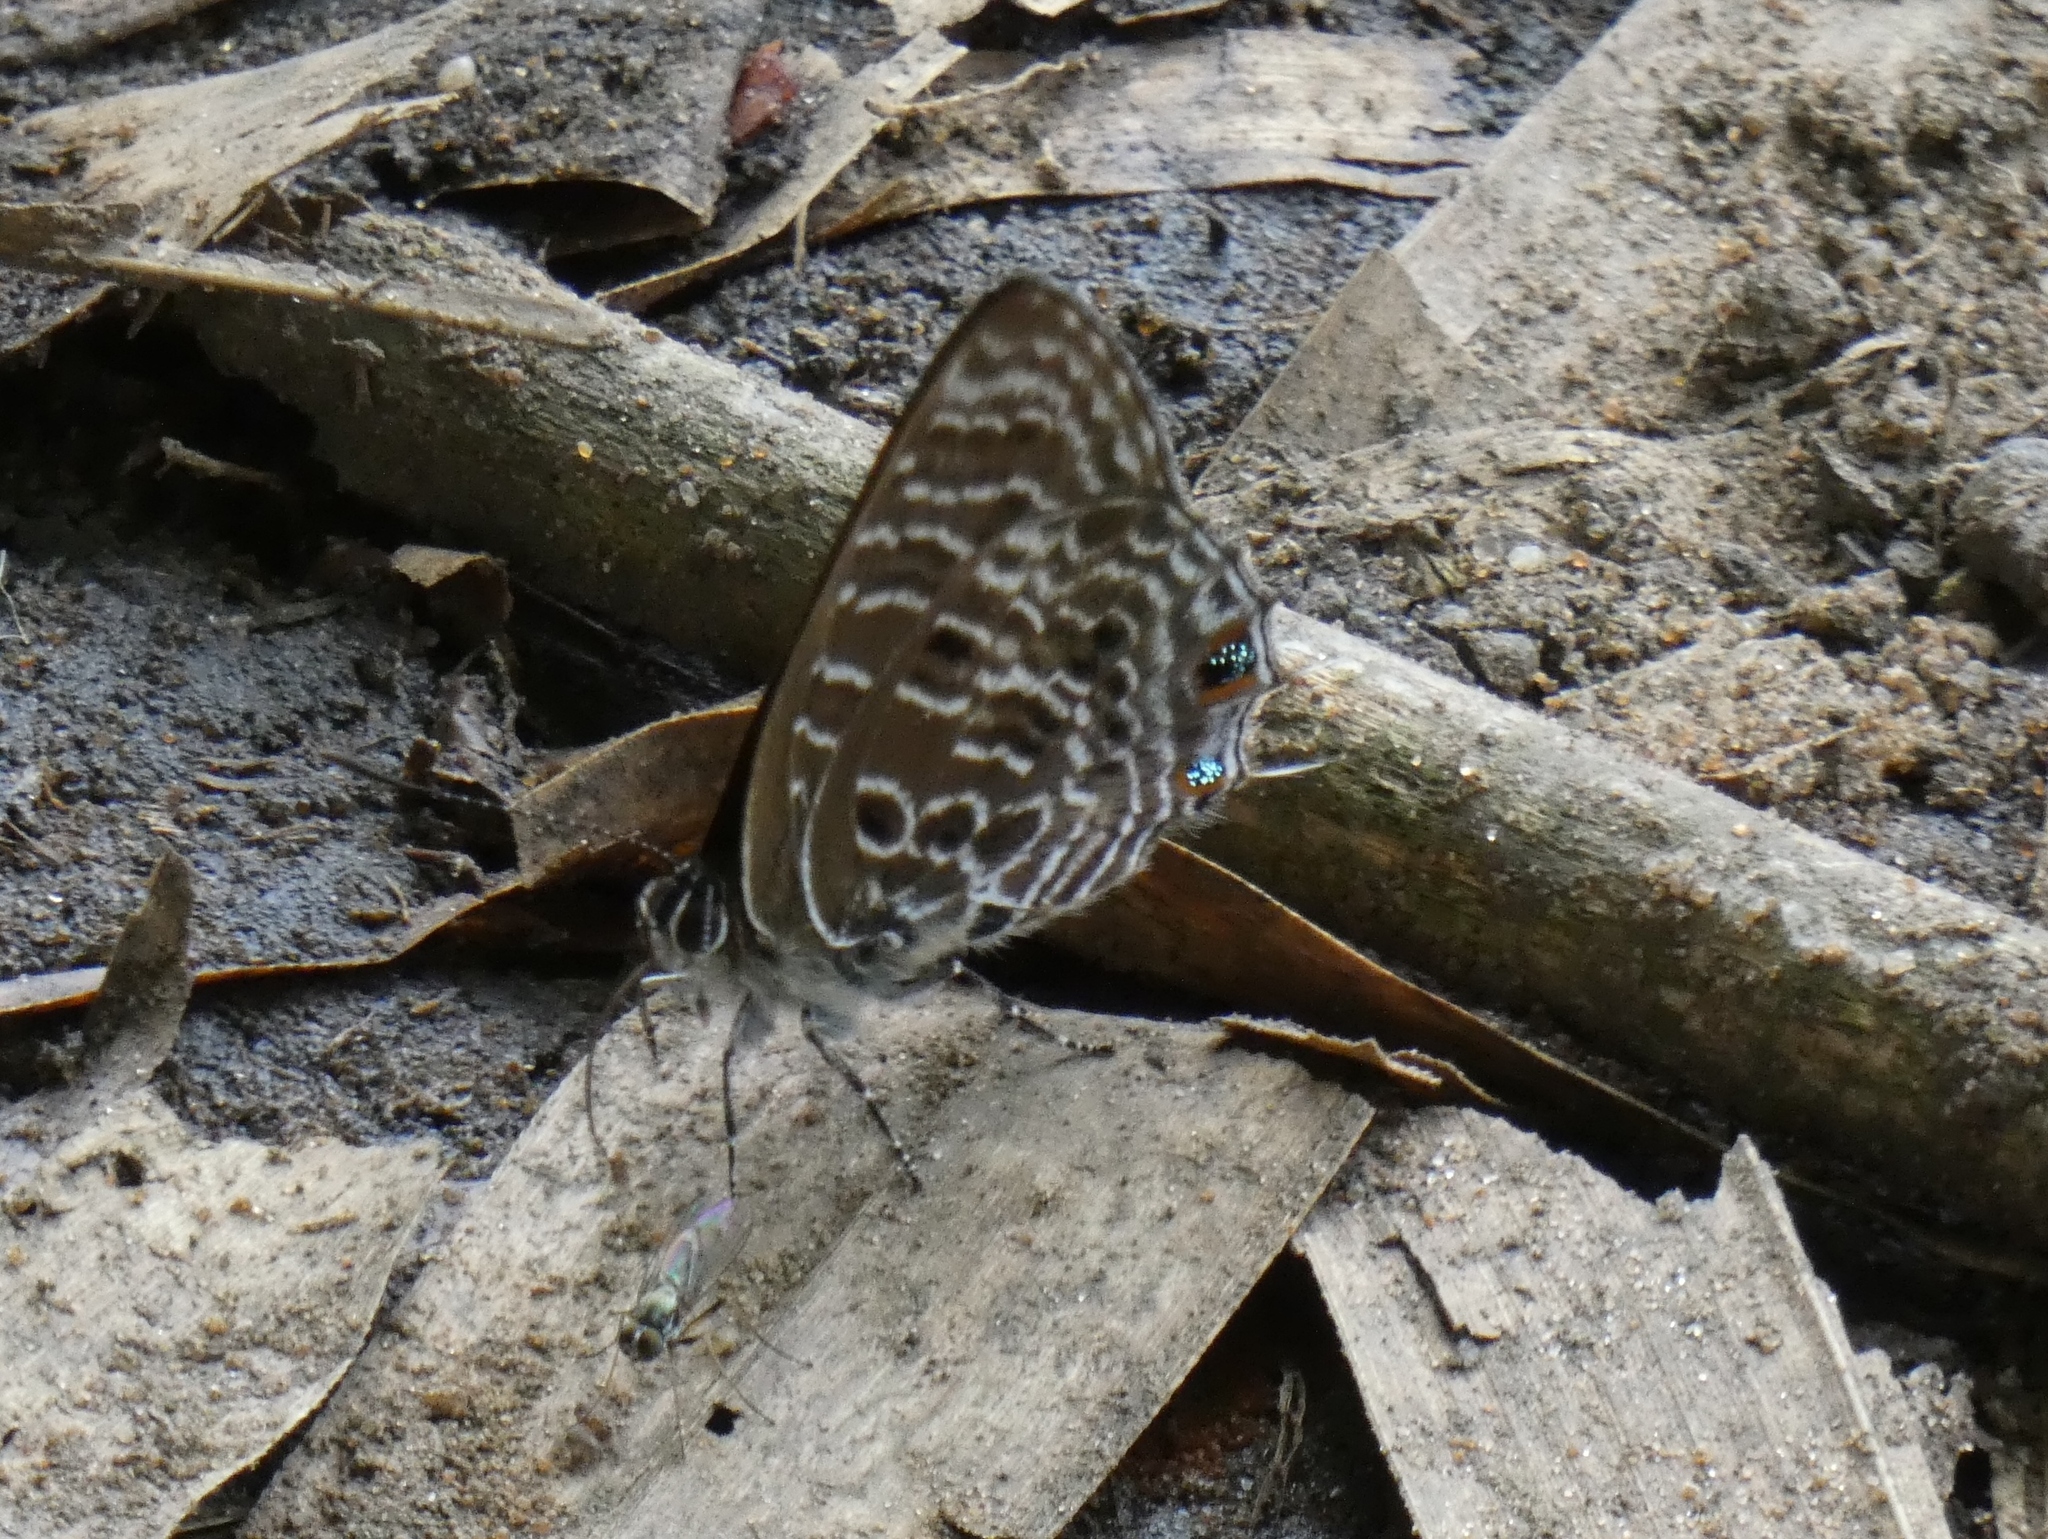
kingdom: Animalia
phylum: Arthropoda
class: Insecta
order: Lepidoptera
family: Lycaenidae
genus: Anthene
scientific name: Anthene larydas
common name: Forest hairtail
